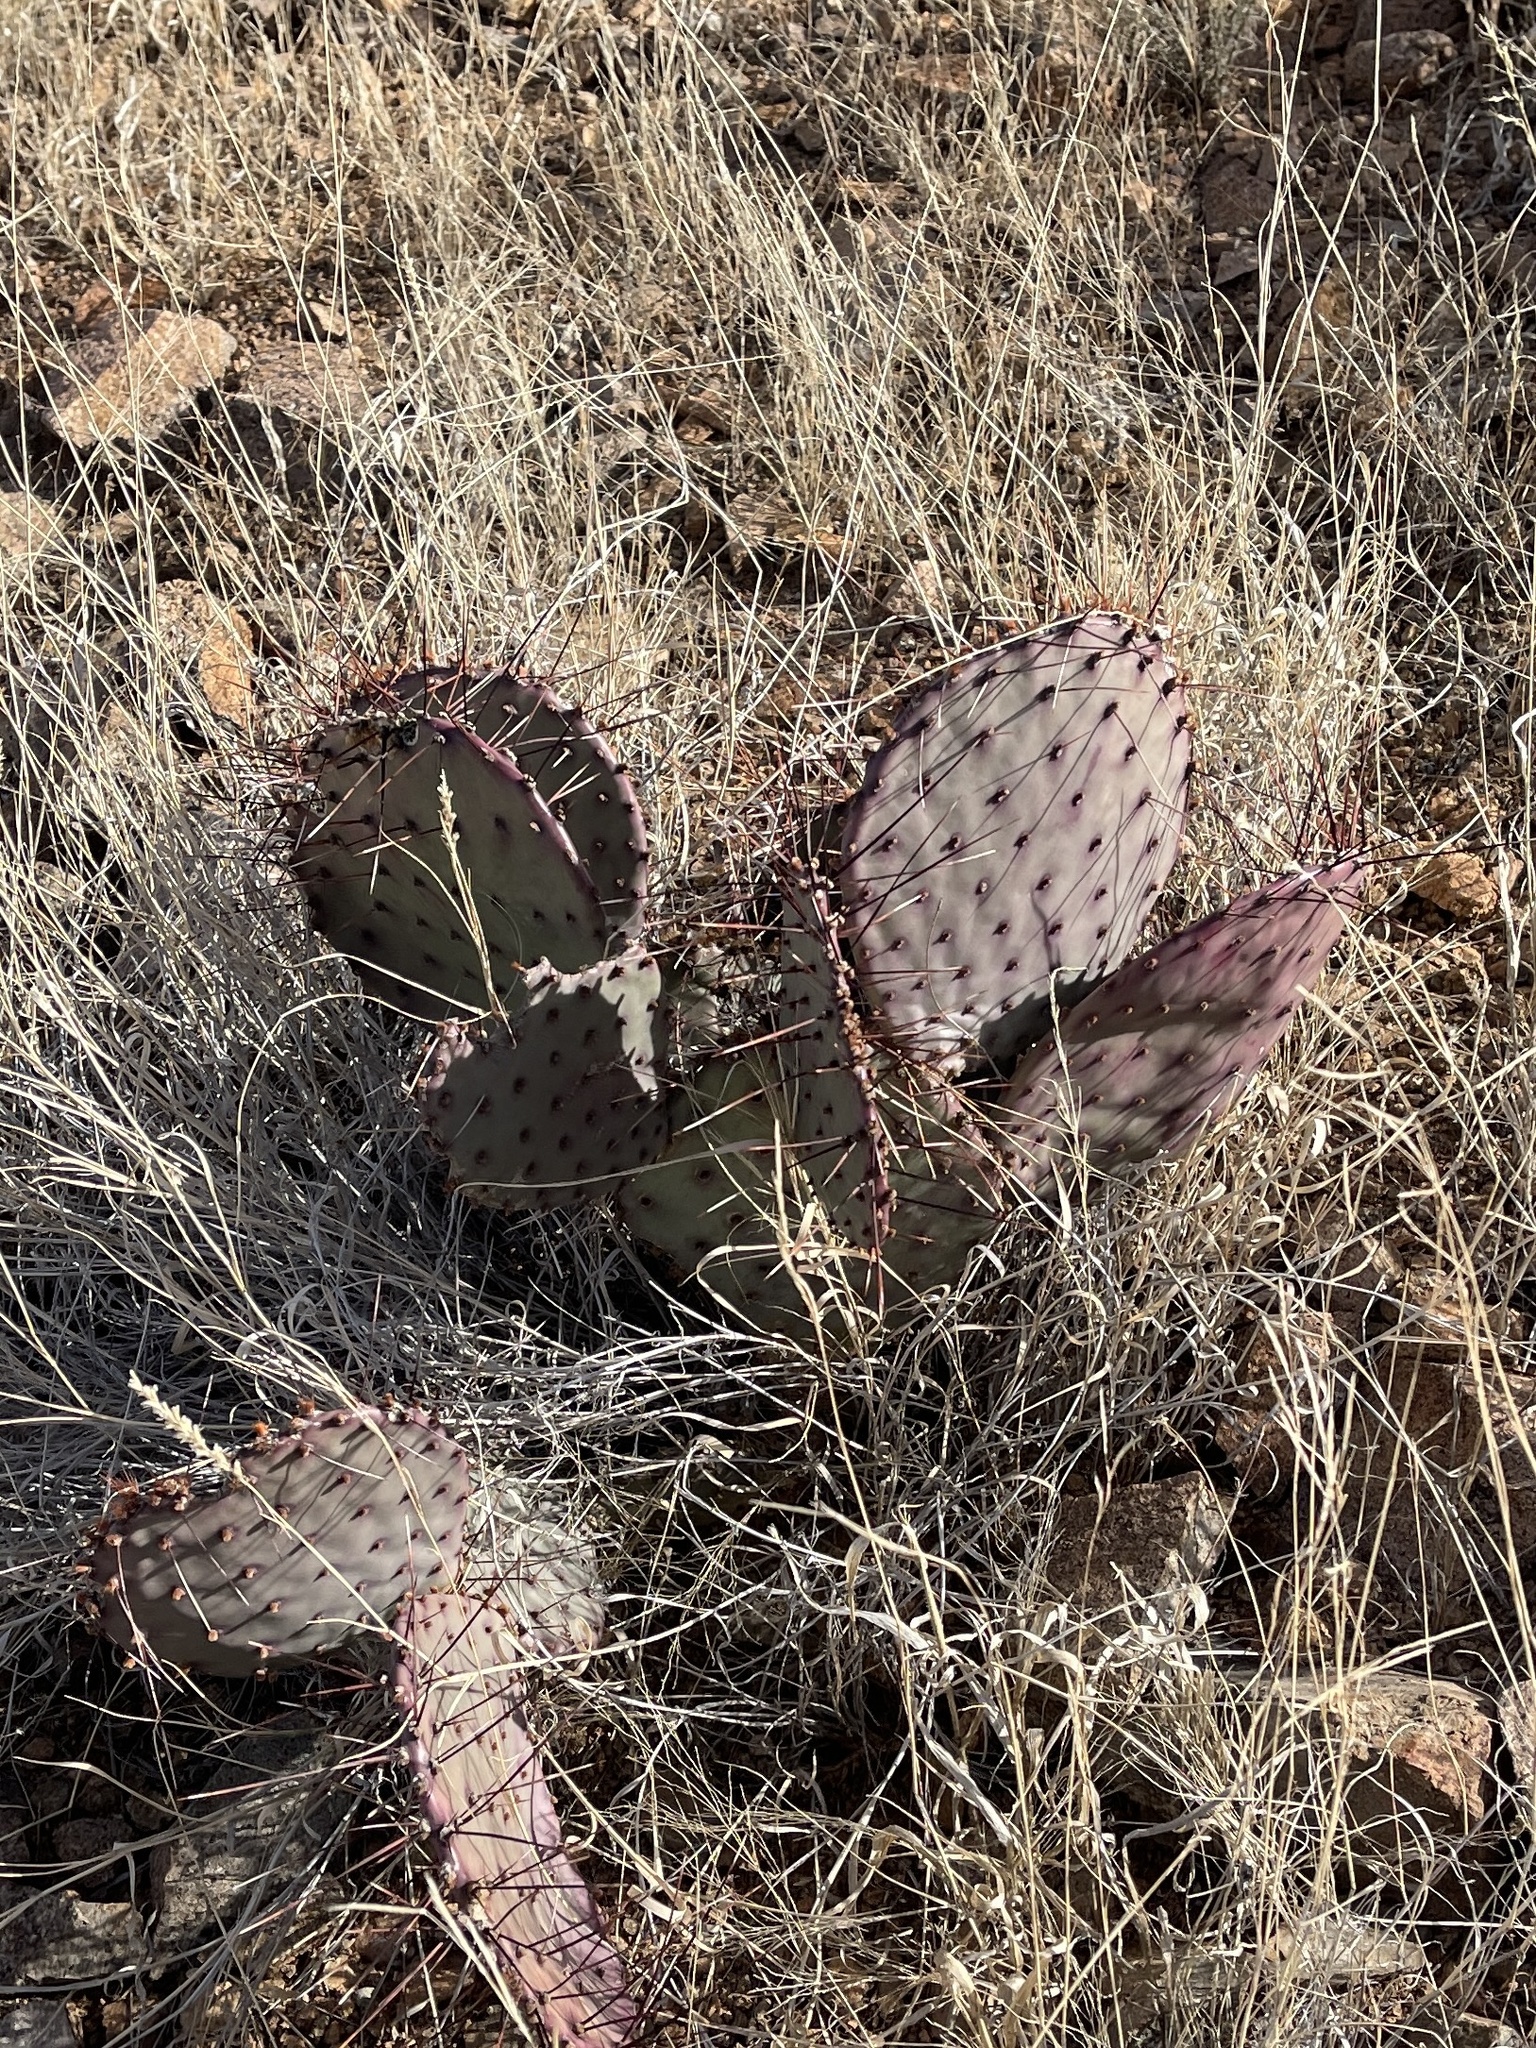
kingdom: Plantae
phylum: Tracheophyta
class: Magnoliopsida
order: Caryophyllales
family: Cactaceae
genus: Opuntia
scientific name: Opuntia macrocentra
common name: Purple prickly-pear
